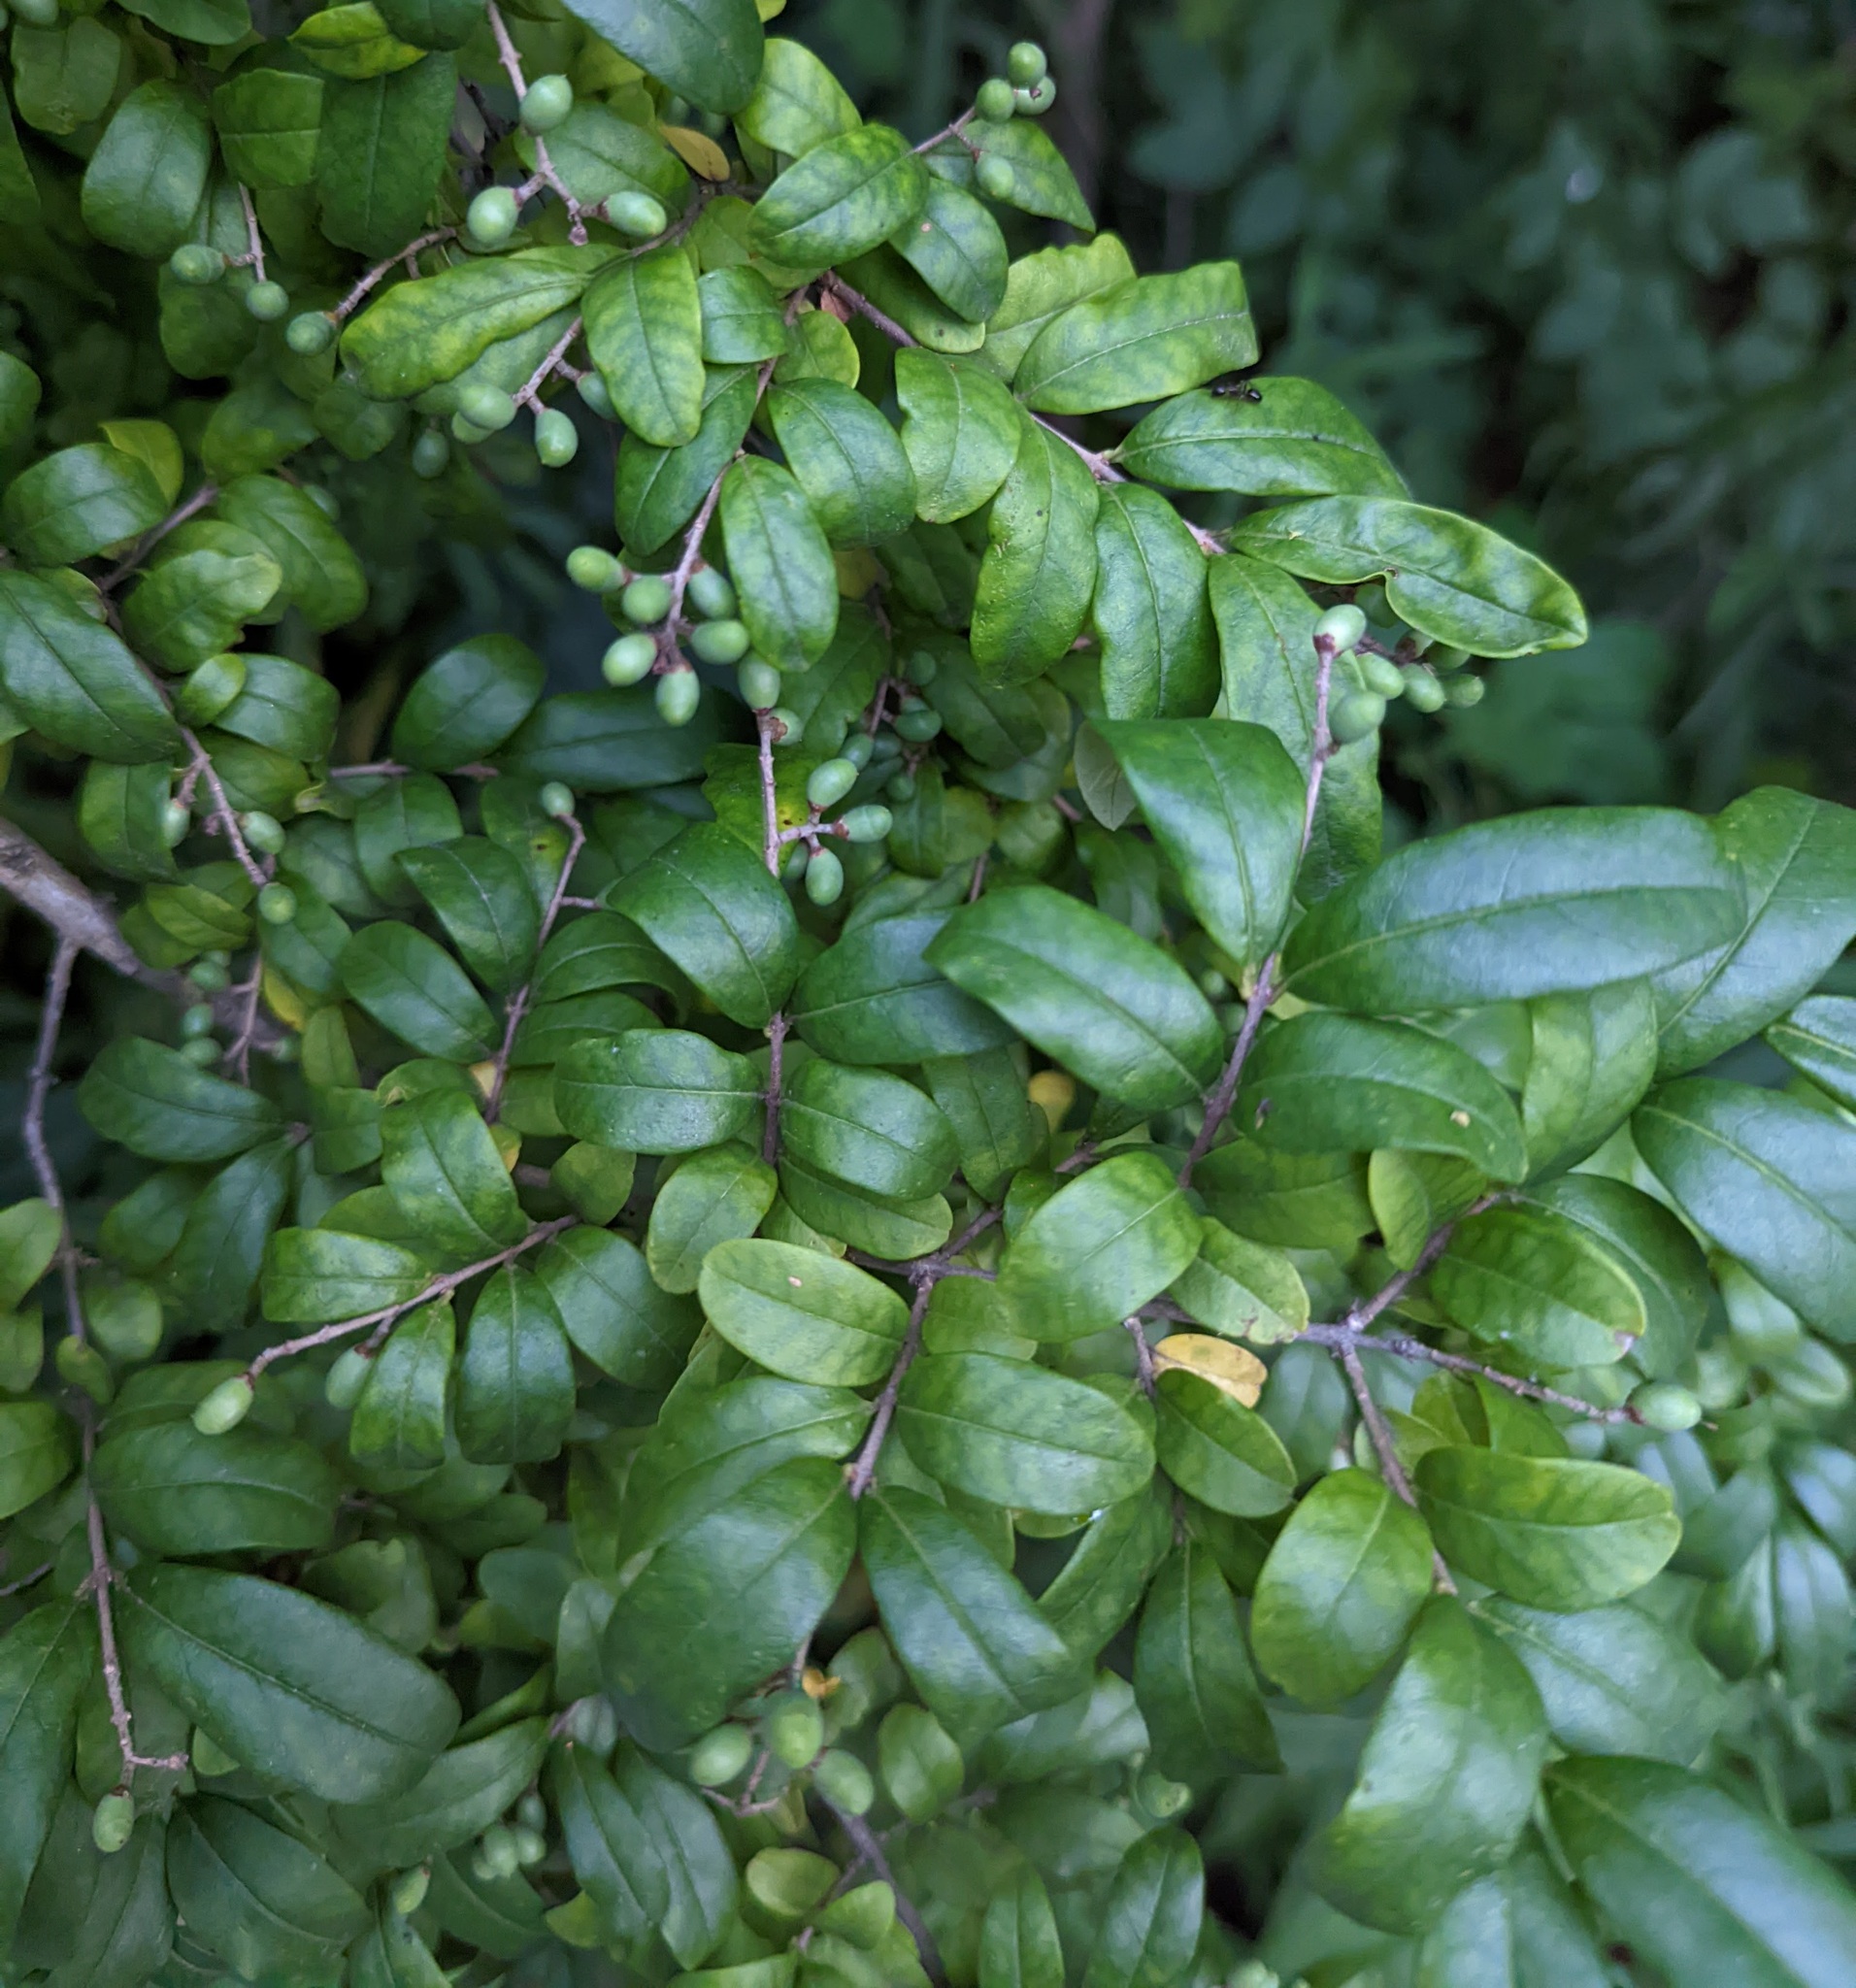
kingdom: Plantae
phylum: Tracheophyta
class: Magnoliopsida
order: Lamiales
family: Oleaceae
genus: Ligustrum
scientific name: Ligustrum obtusifolium
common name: Border privet
